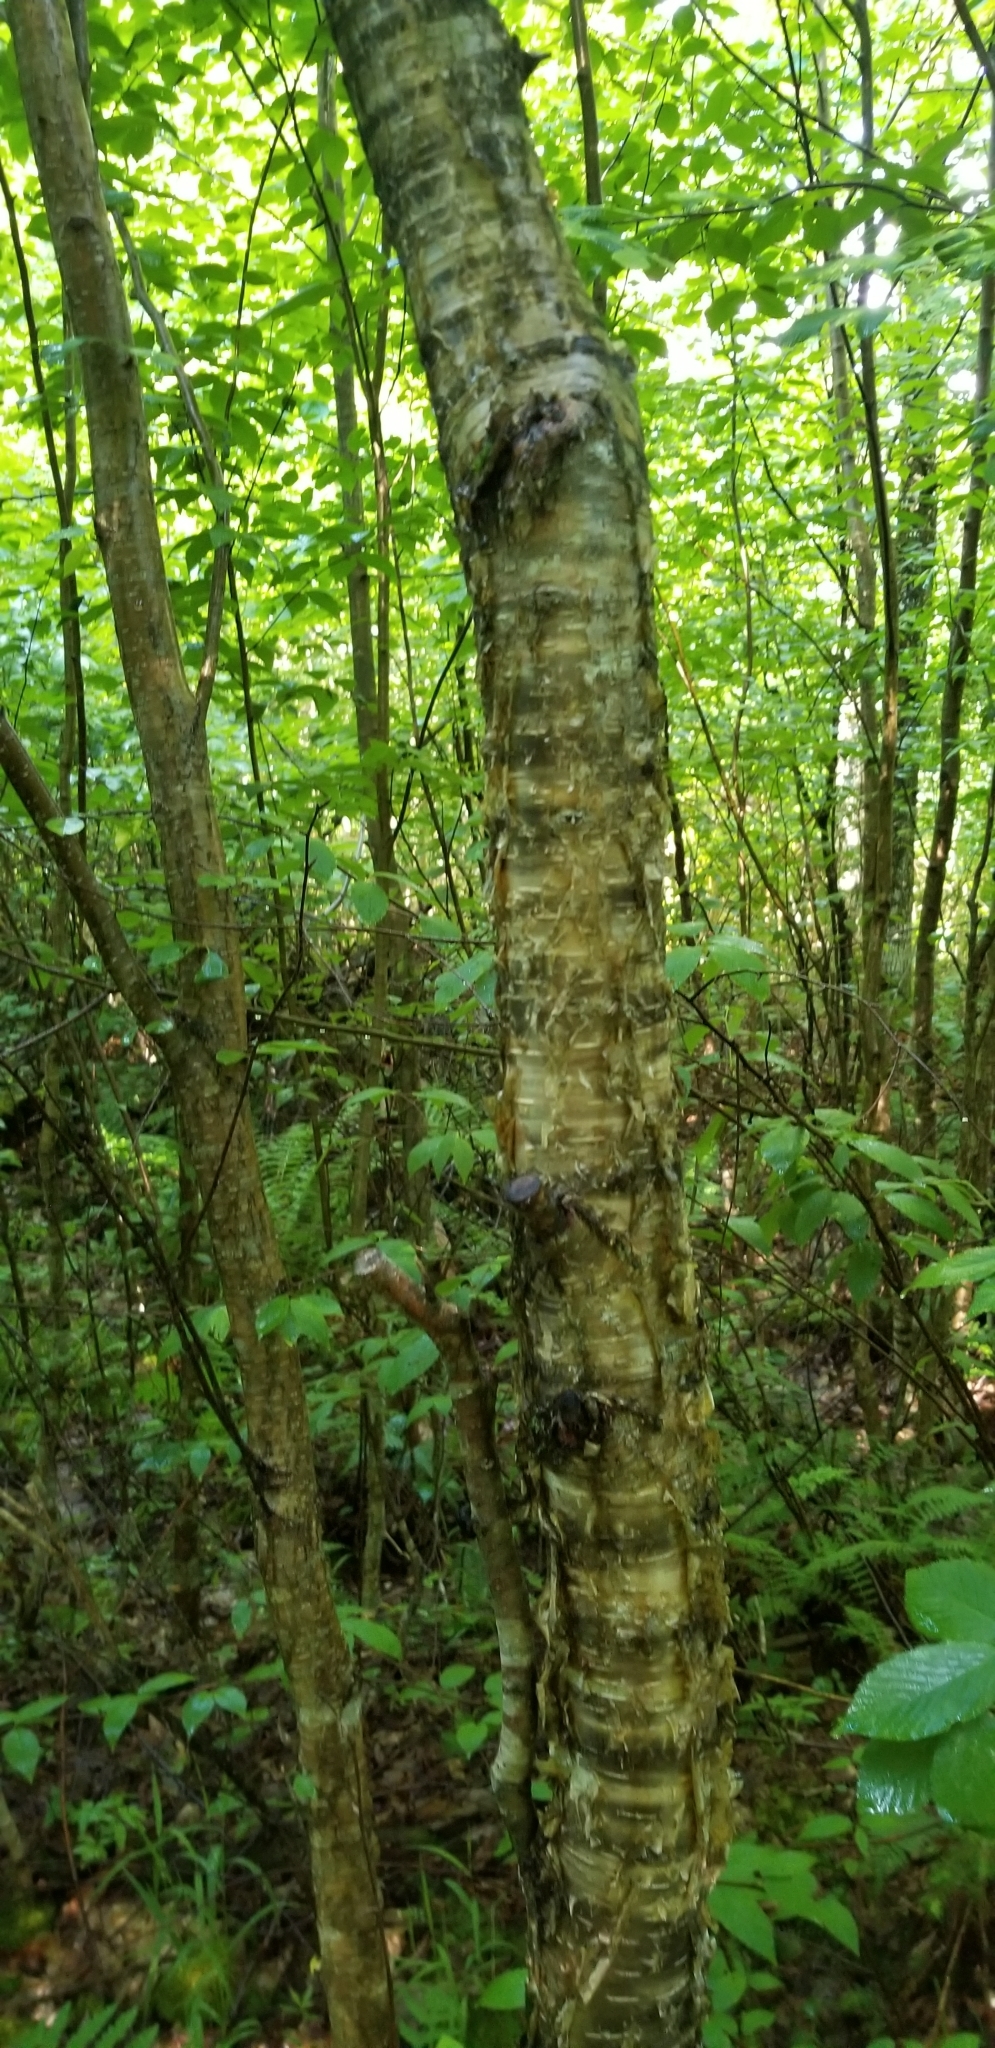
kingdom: Plantae
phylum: Tracheophyta
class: Magnoliopsida
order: Fagales
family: Betulaceae
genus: Betula
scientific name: Betula alleghaniensis
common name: Yellow birch
